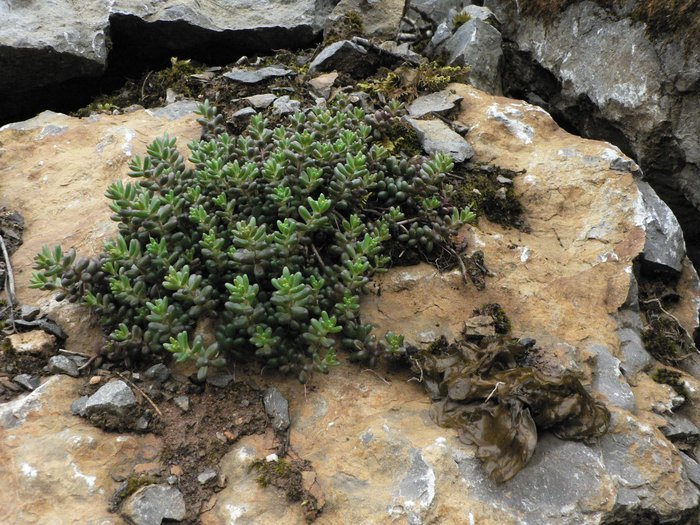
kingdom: Plantae
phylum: Tracheophyta
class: Magnoliopsida
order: Saxifragales
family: Crassulaceae
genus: Sedum
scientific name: Sedum album
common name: White stonecrop
